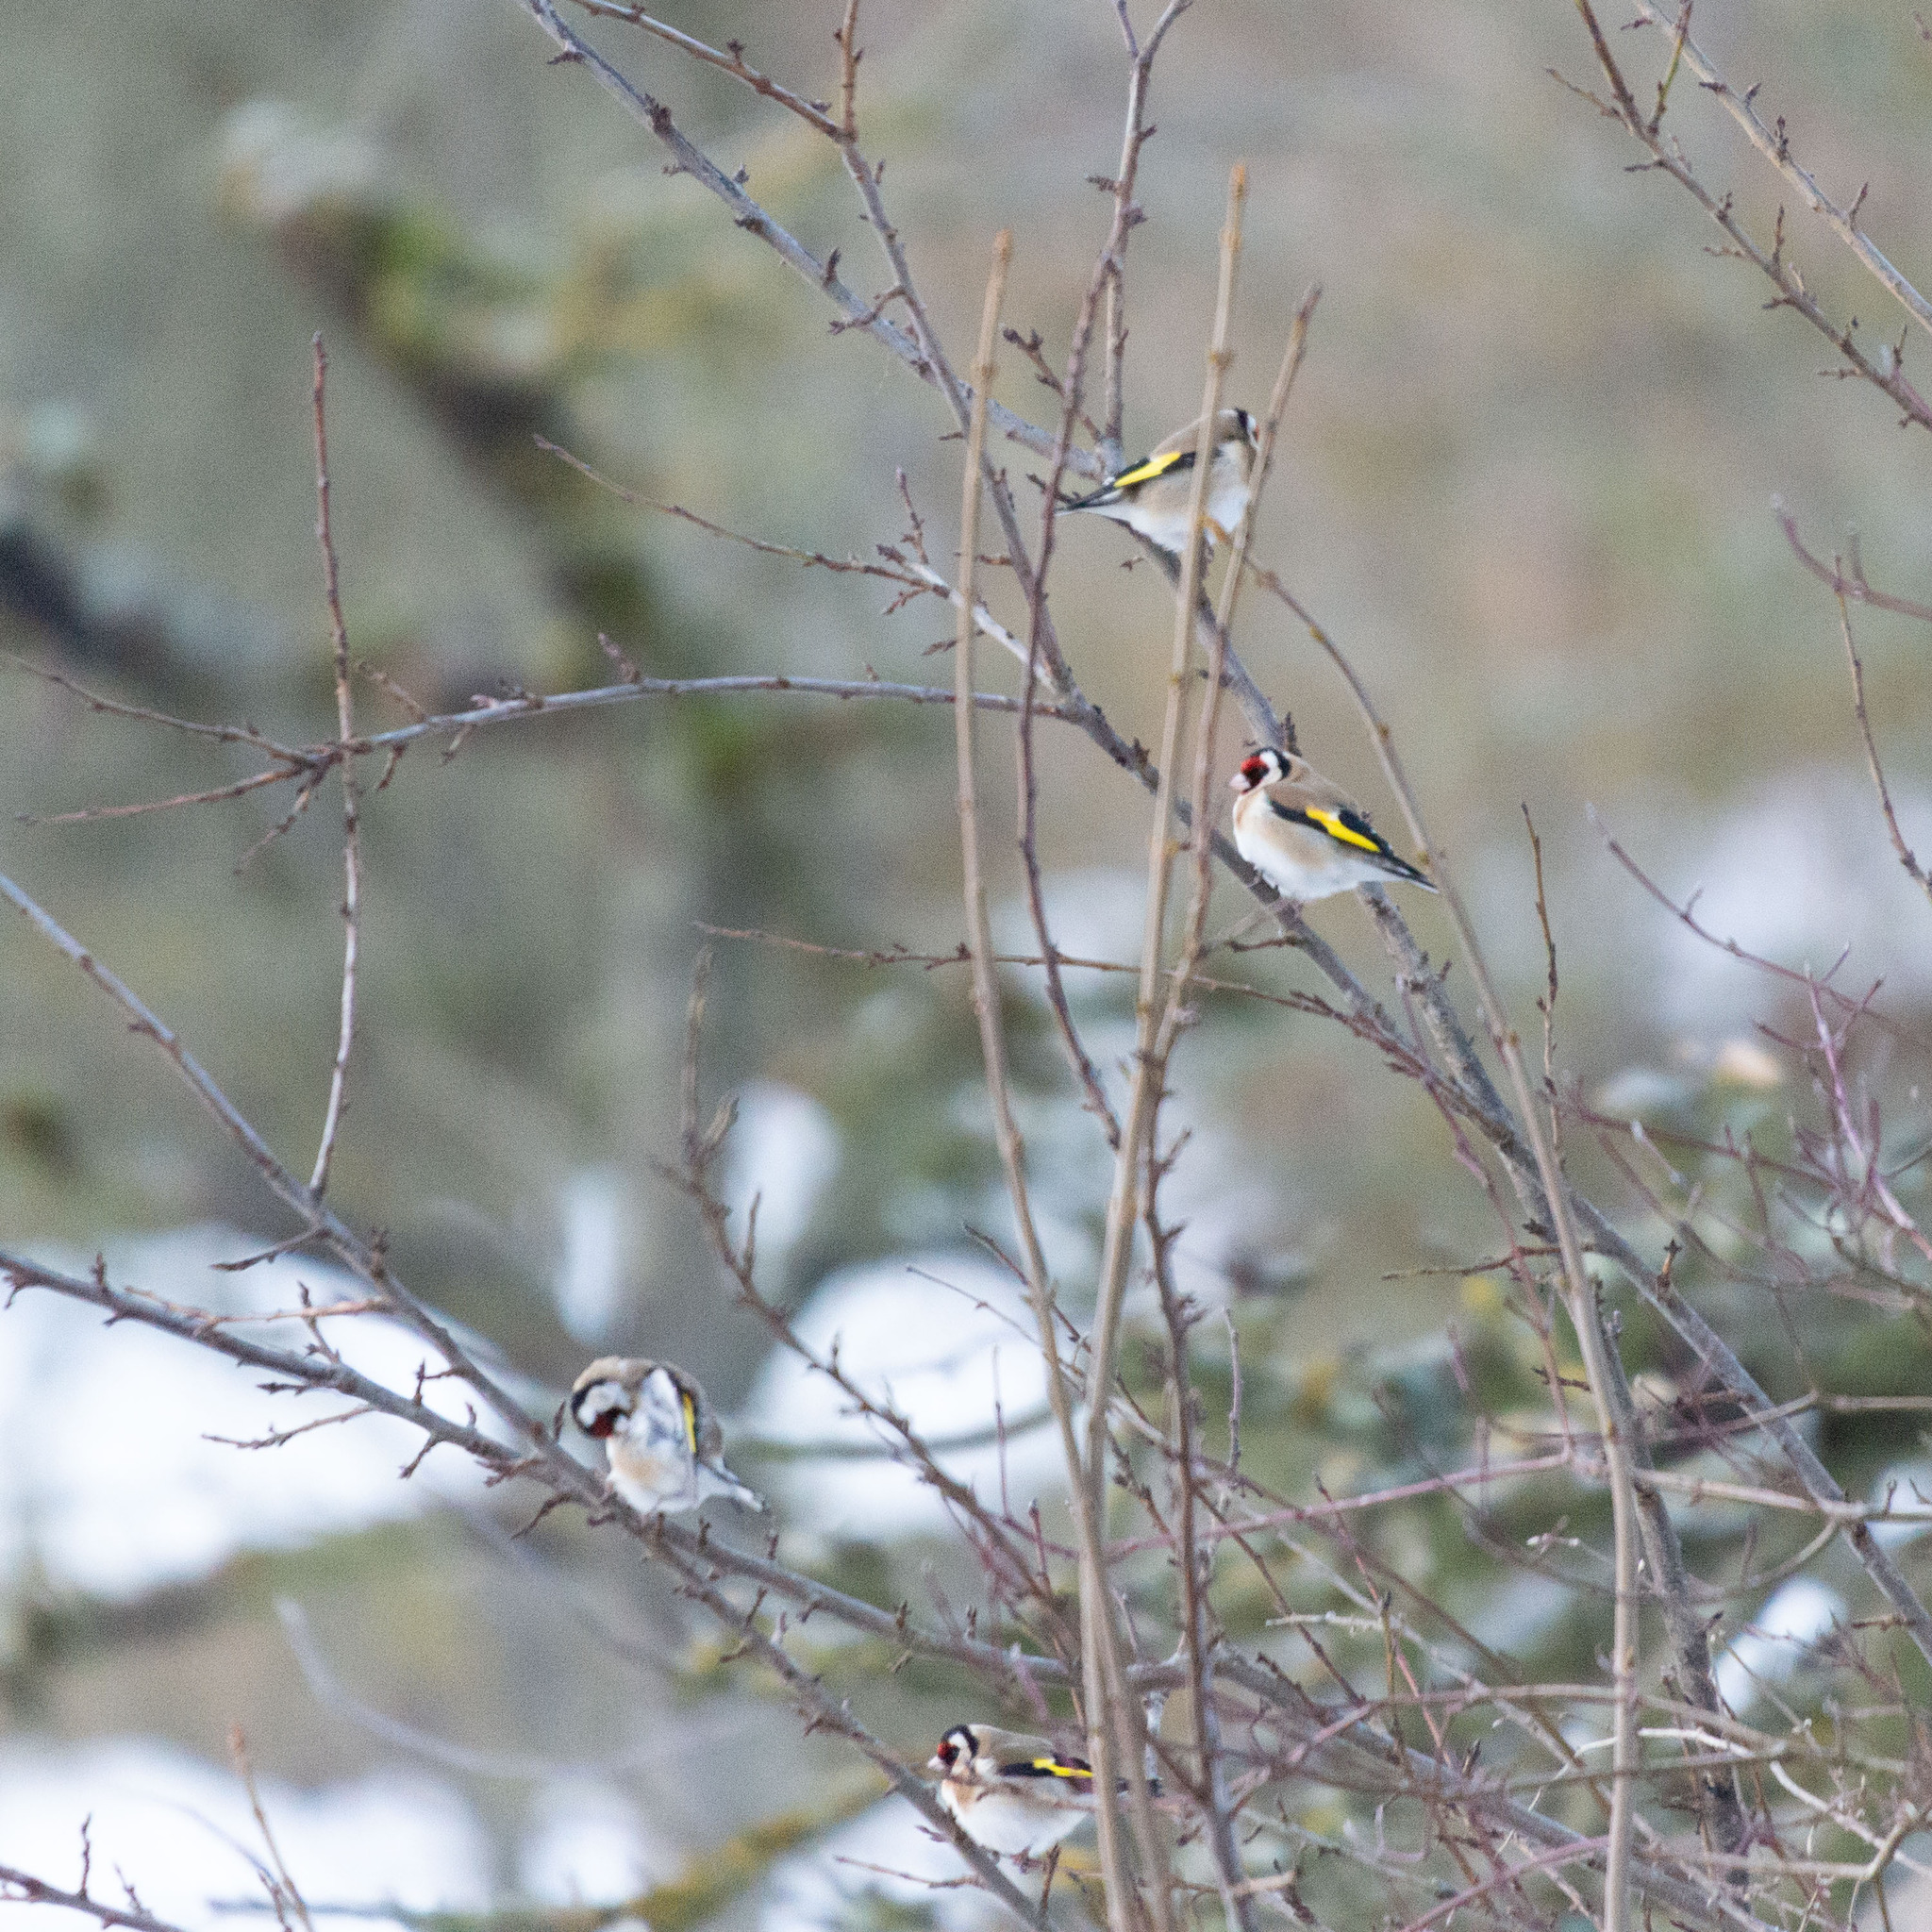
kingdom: Animalia
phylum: Chordata
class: Aves
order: Passeriformes
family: Fringillidae
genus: Carduelis
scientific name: Carduelis carduelis
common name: European goldfinch
